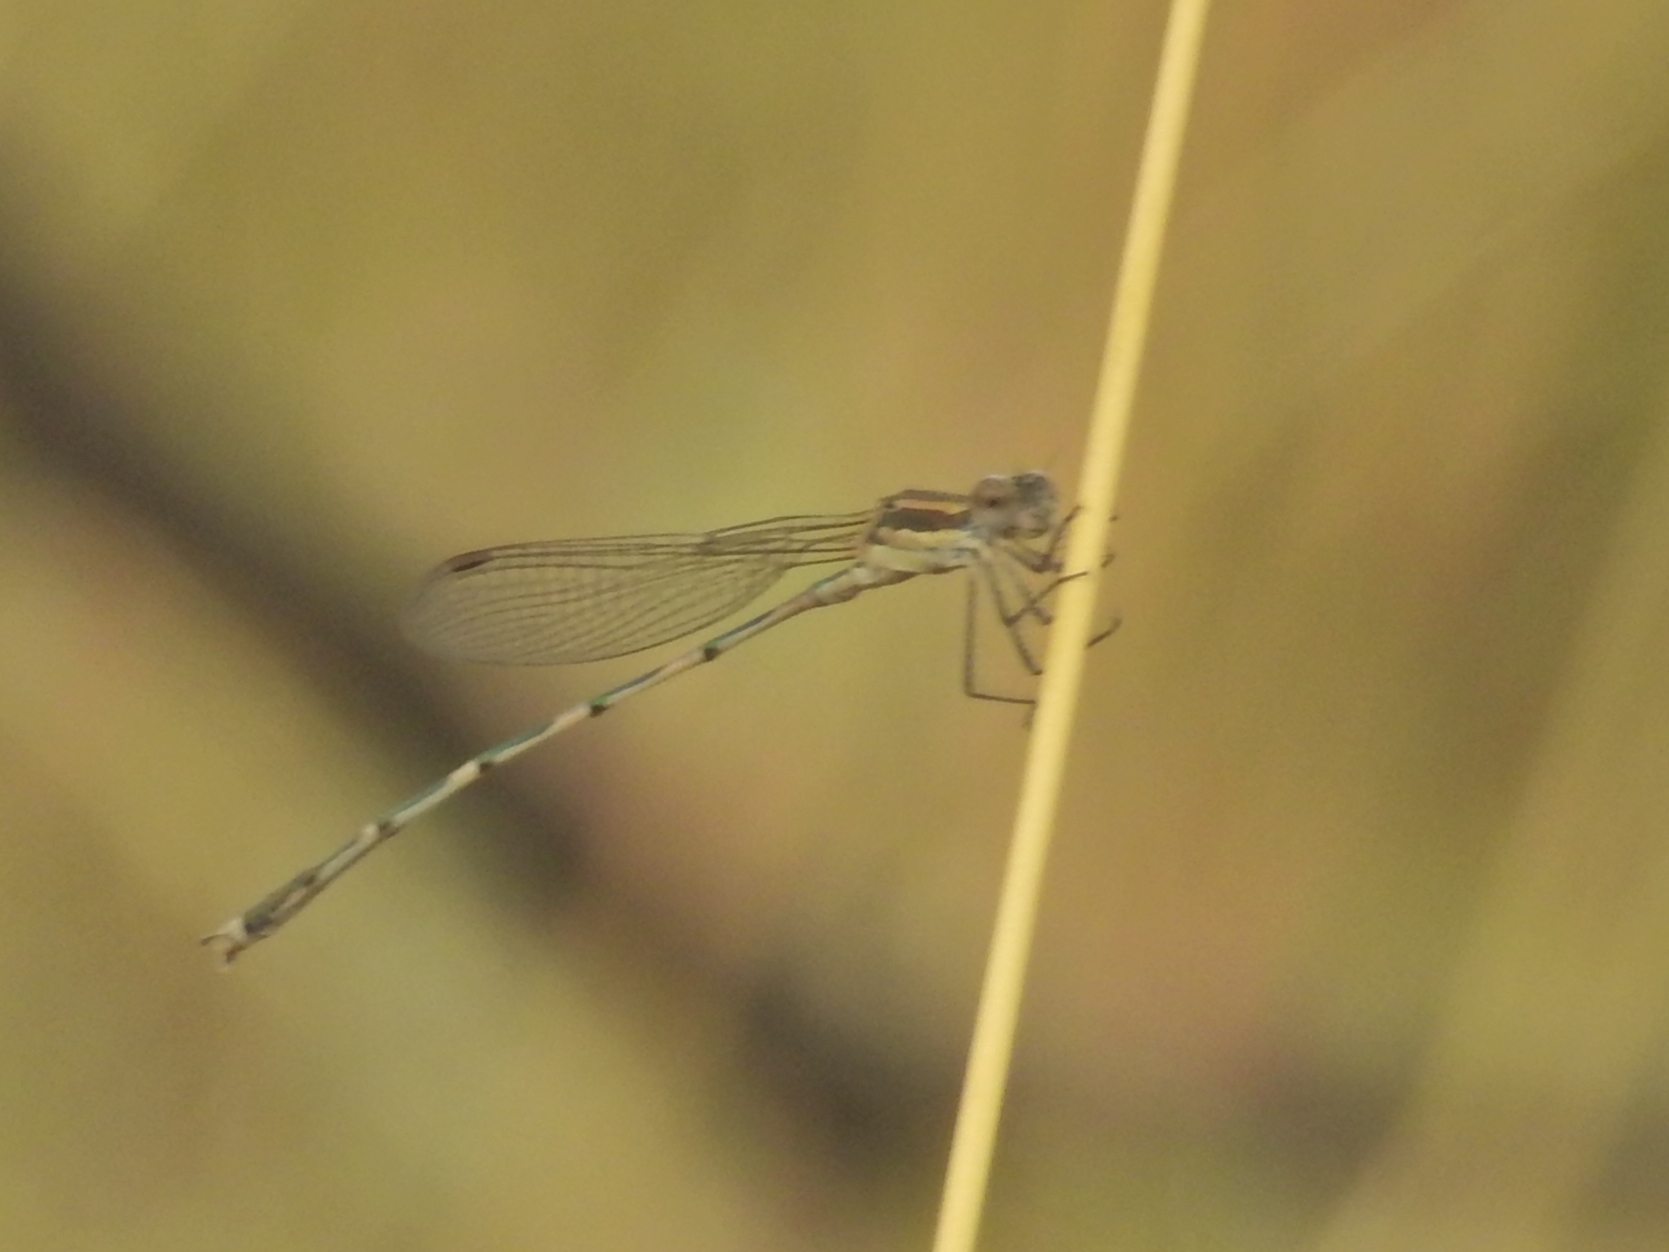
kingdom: Animalia
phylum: Arthropoda
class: Insecta
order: Odonata
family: Lestidae
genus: Austrolestes
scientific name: Austrolestes leda
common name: Wandering ringtail
